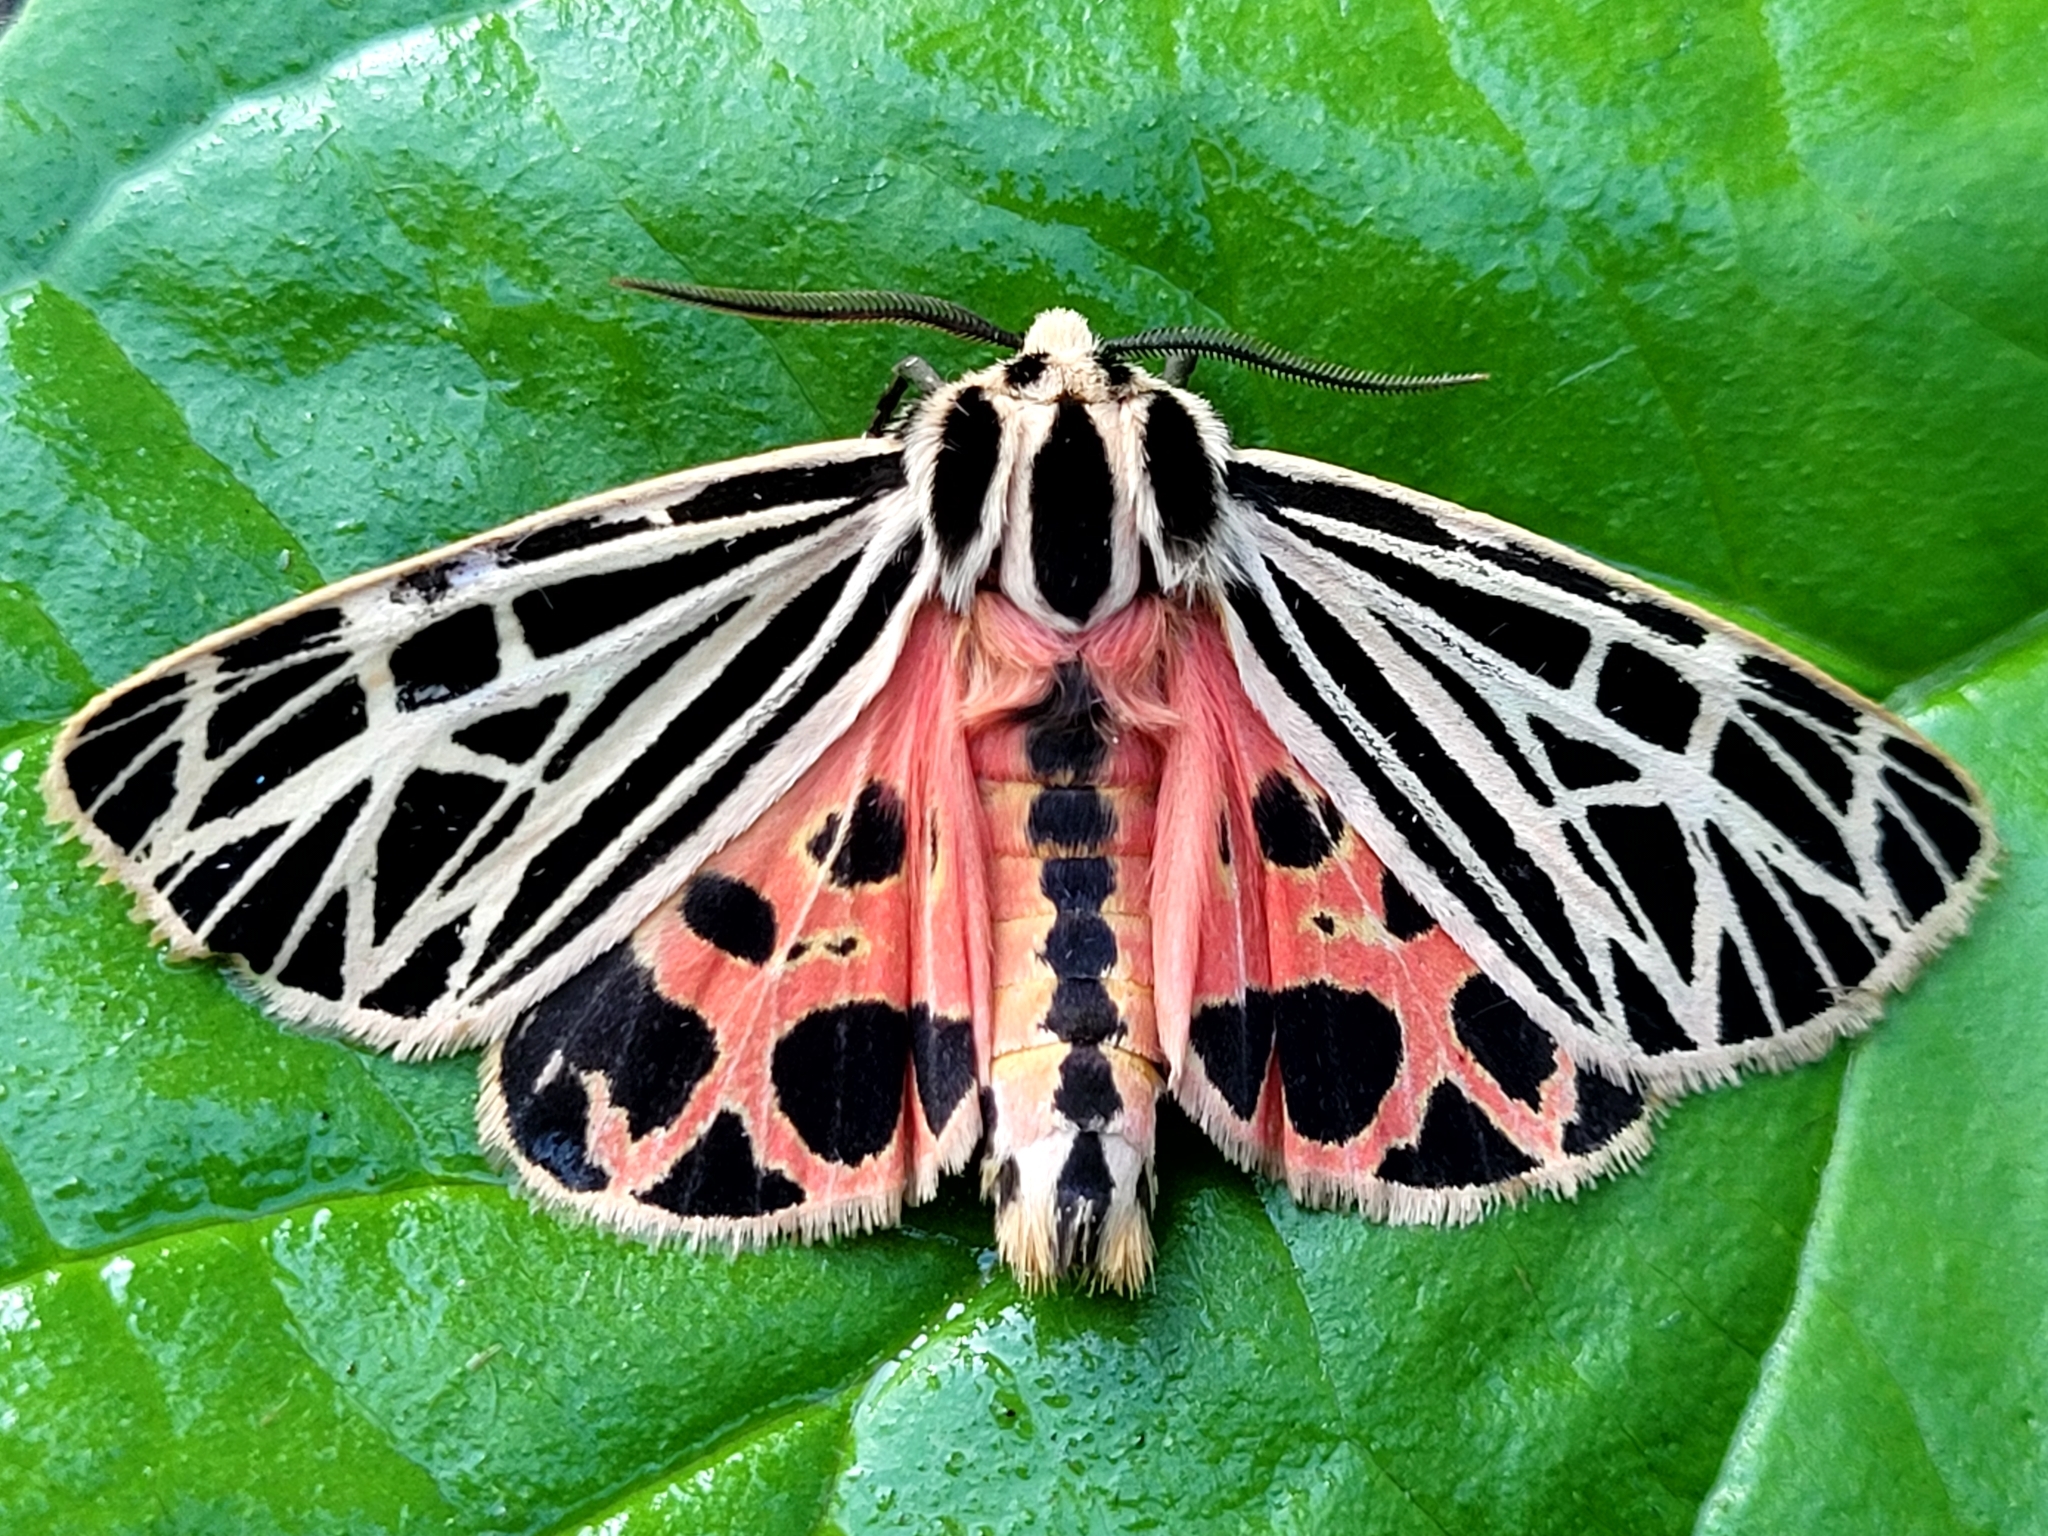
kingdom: Animalia
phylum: Arthropoda
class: Insecta
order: Lepidoptera
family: Erebidae
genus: Grammia
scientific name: Grammia virgo
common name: Virgin tiger moth
